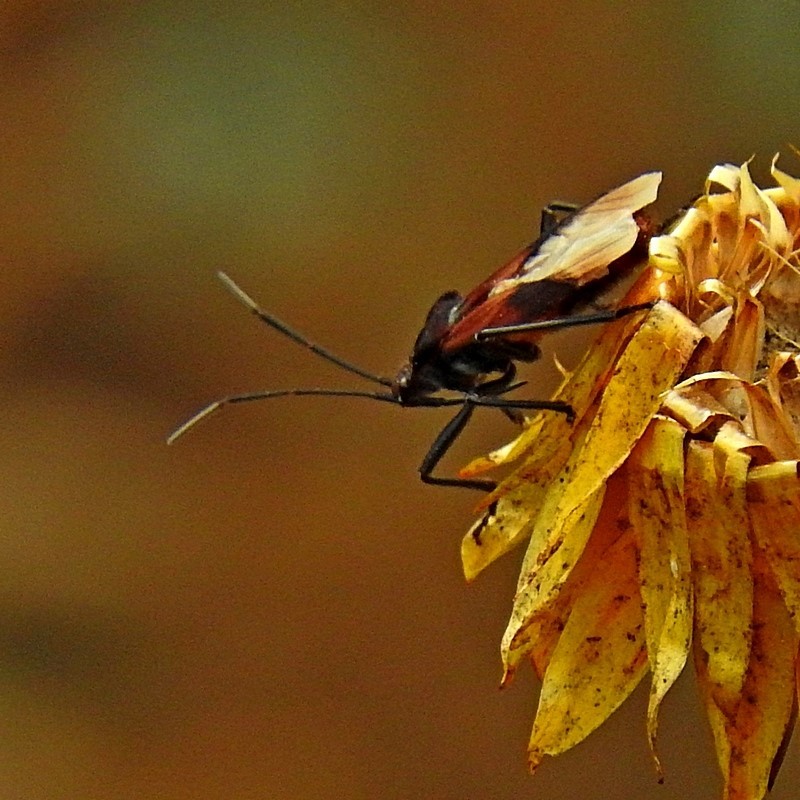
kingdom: Animalia
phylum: Arthropoda
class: Insecta
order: Hemiptera
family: Lygaeidae
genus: Oncopeltus
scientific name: Oncopeltus sordidus
